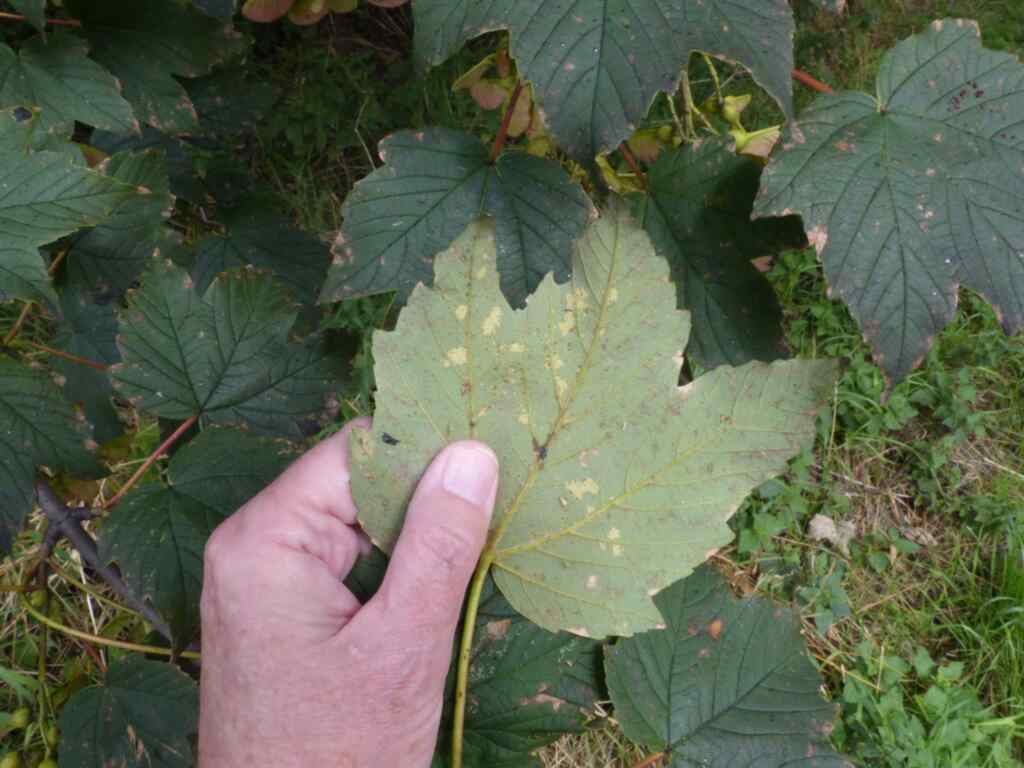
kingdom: Plantae
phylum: Tracheophyta
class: Magnoliopsida
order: Sapindales
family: Sapindaceae
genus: Acer
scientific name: Acer pseudoplatanus
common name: Sycamore
